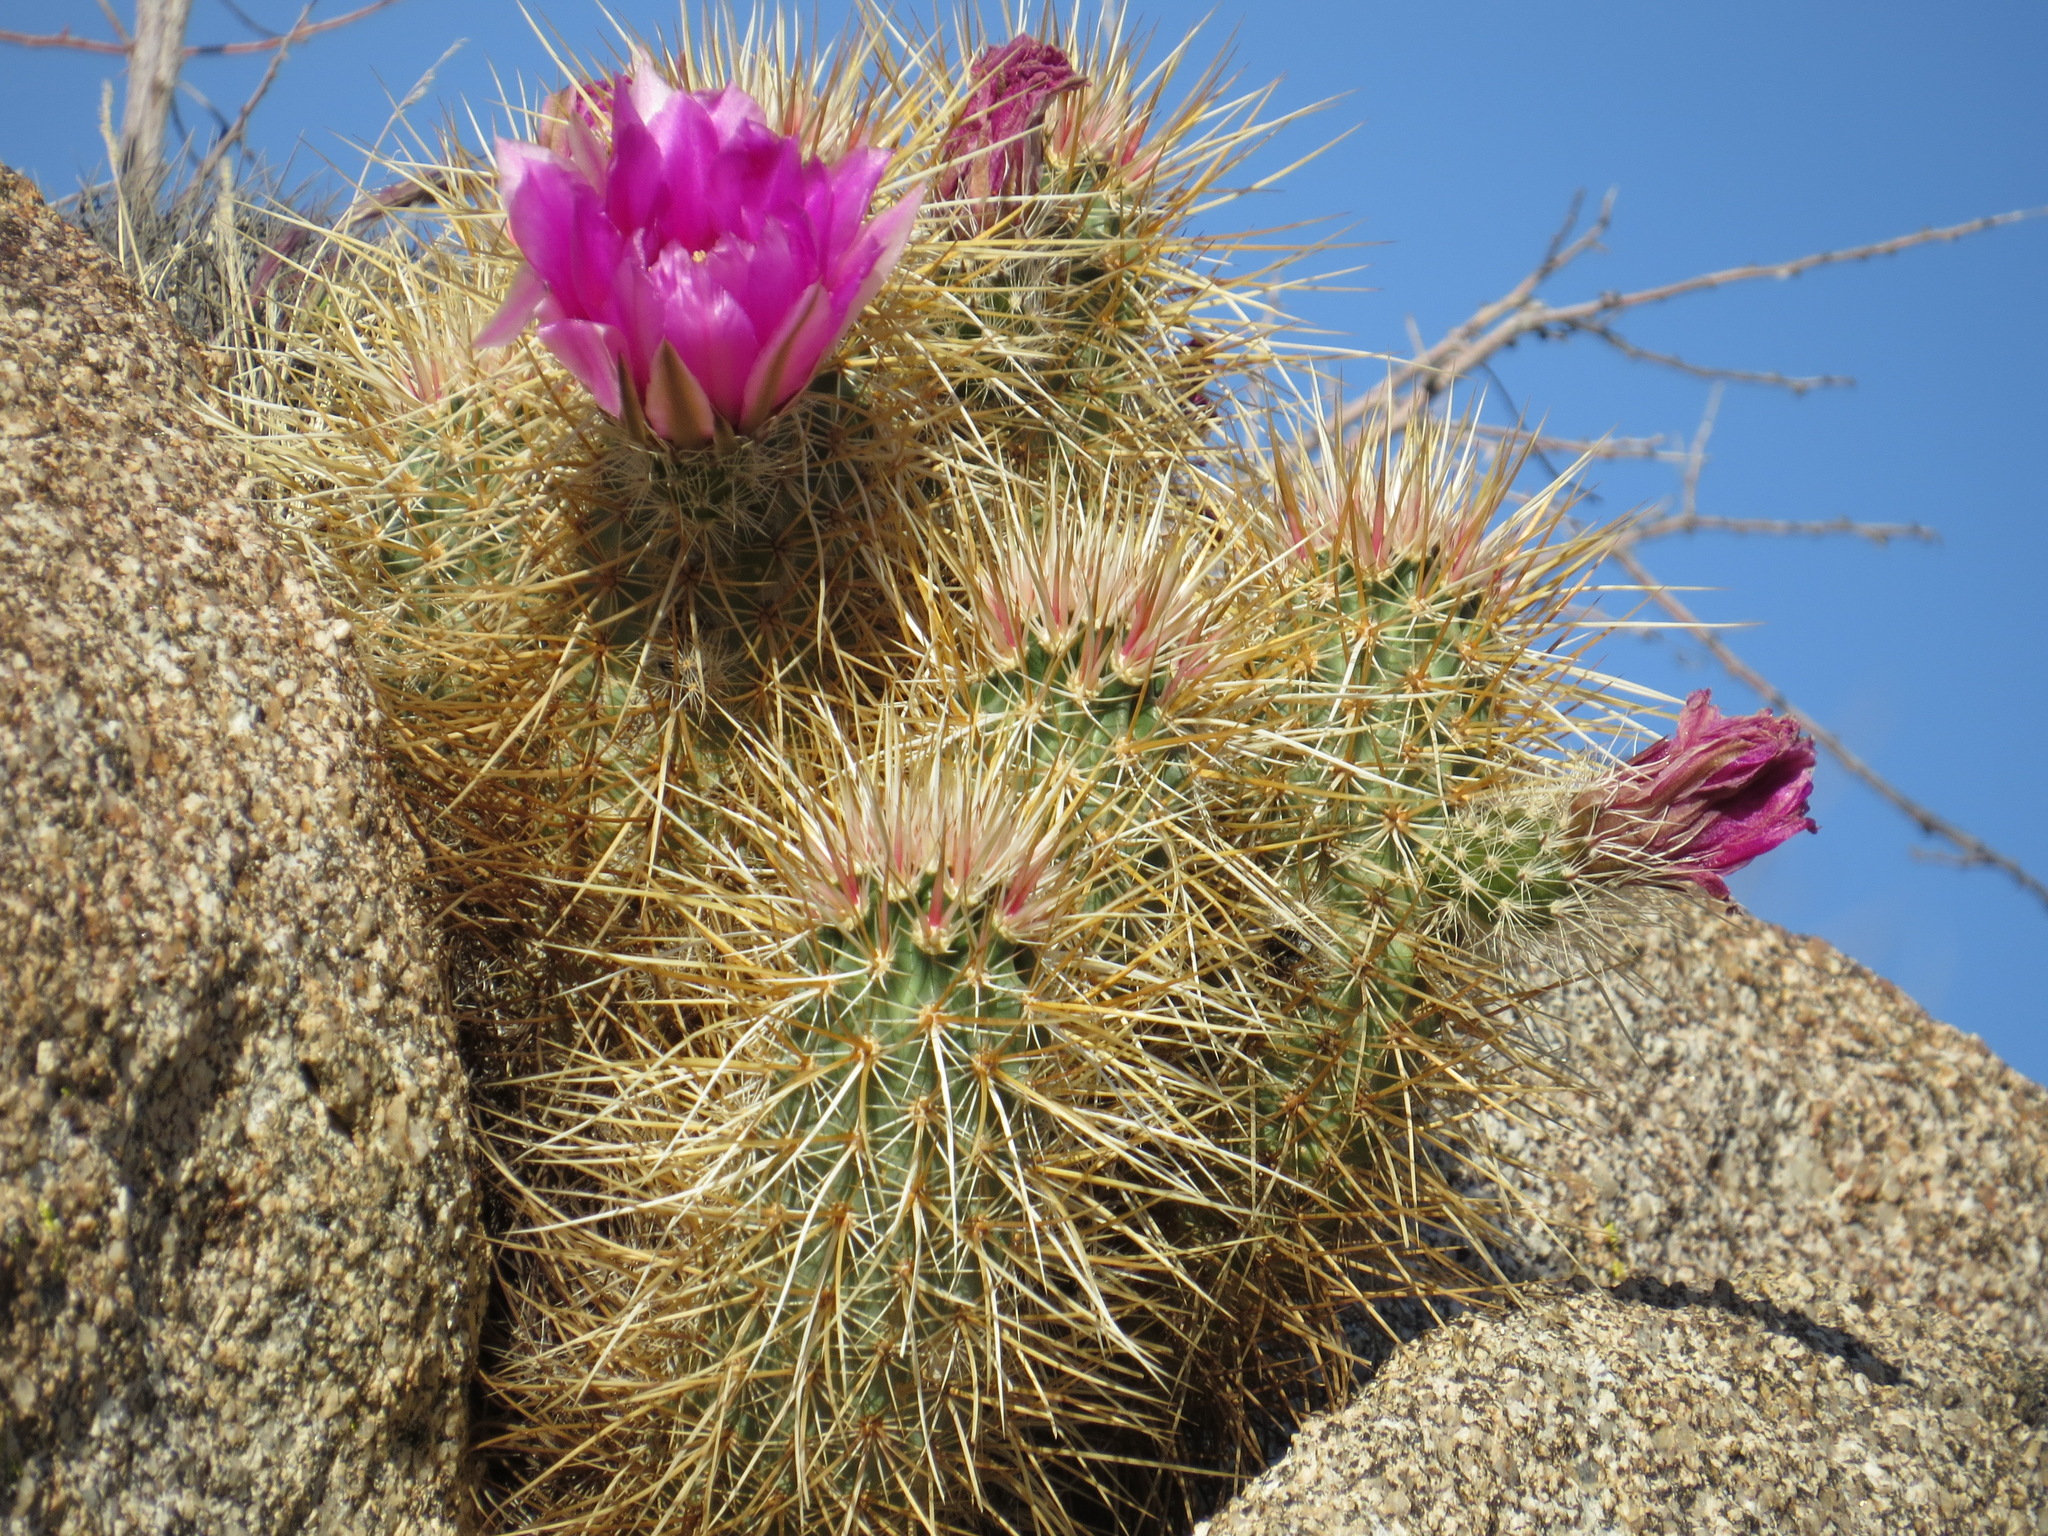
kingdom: Plantae
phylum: Tracheophyta
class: Magnoliopsida
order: Caryophyllales
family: Cactaceae
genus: Echinocereus
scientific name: Echinocereus engelmannii
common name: Engelmann's hedgehog cactus
